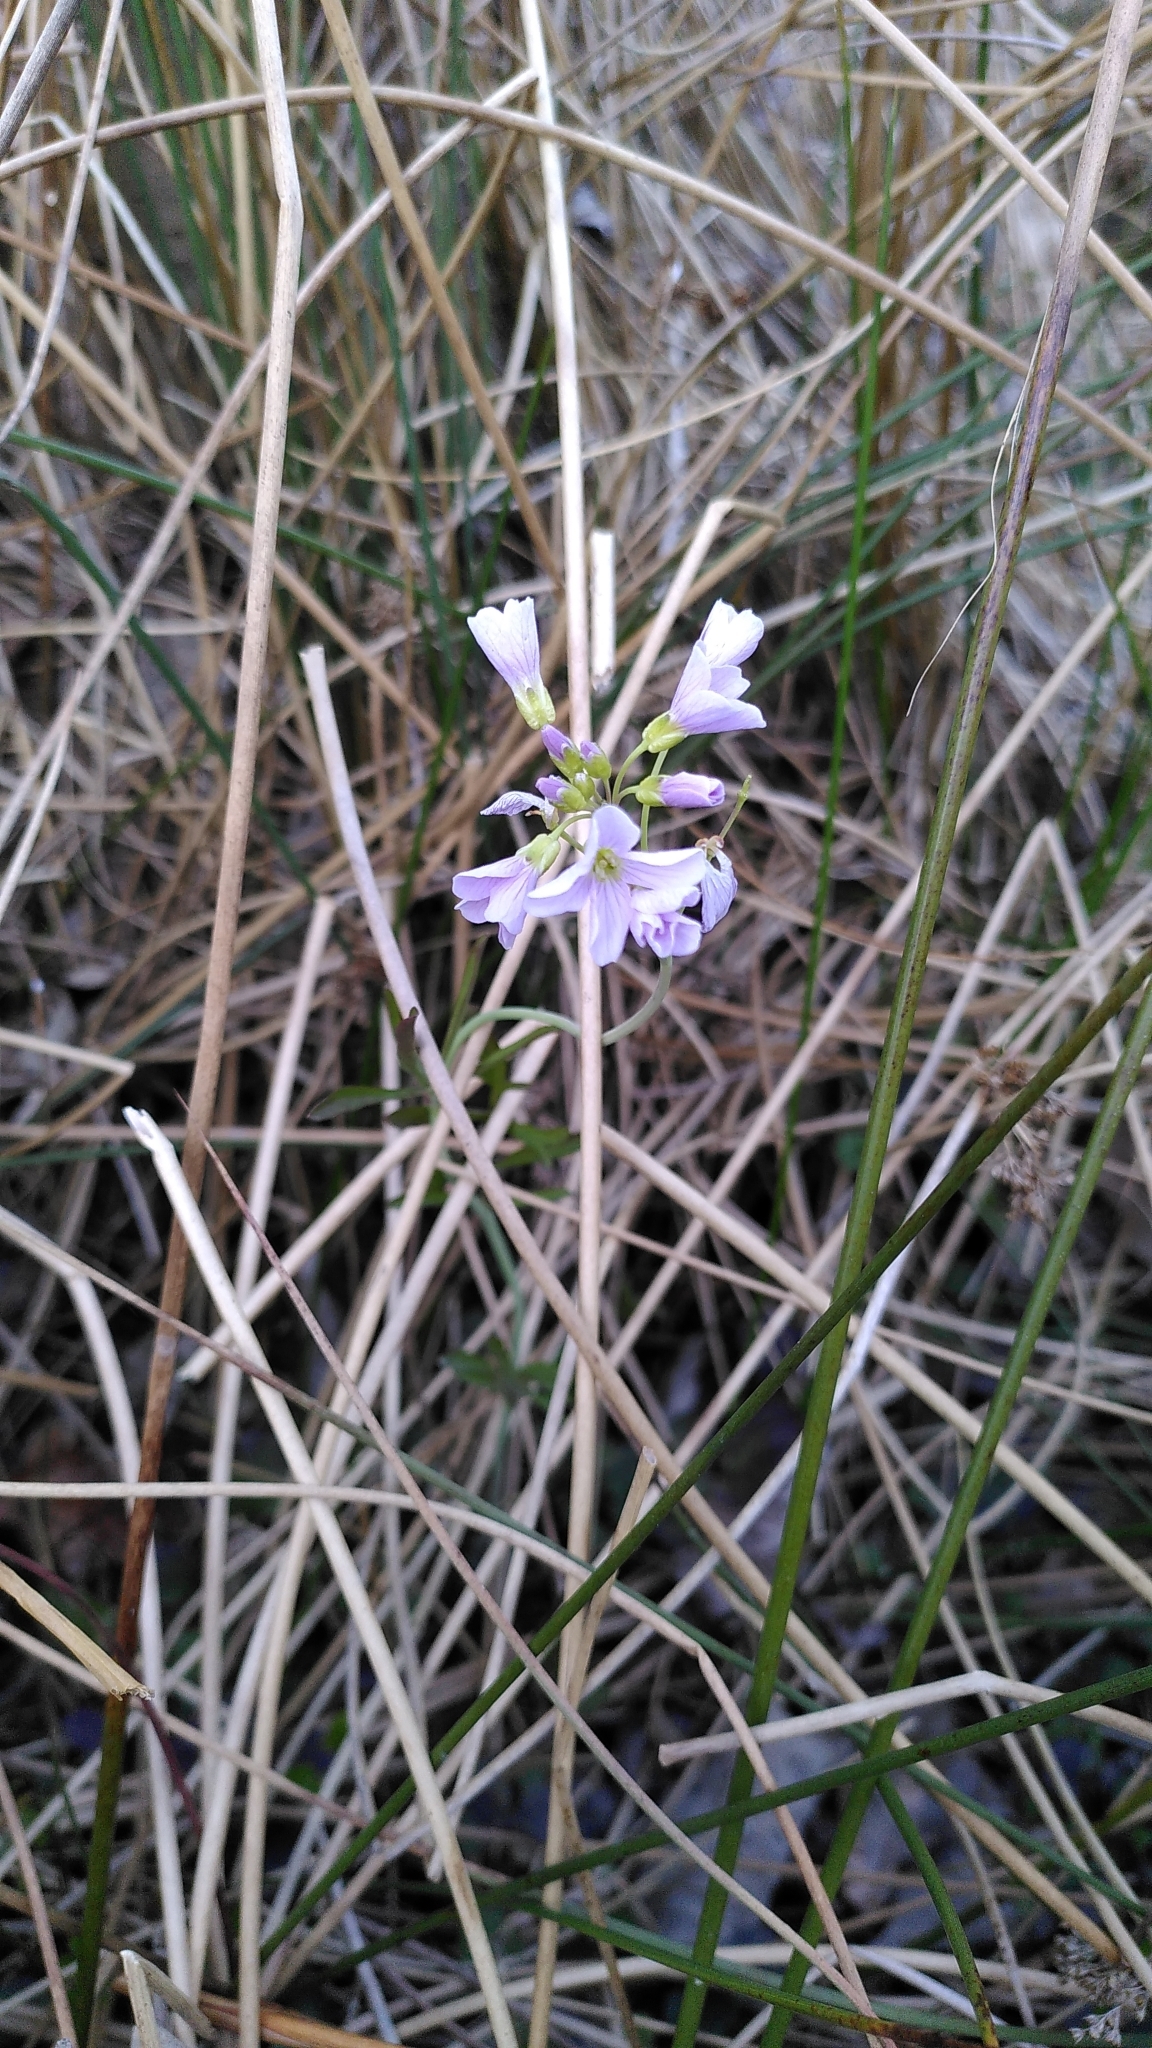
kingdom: Plantae
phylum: Tracheophyta
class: Magnoliopsida
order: Brassicales
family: Brassicaceae
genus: Cardamine
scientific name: Cardamine pratensis
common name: Cuckoo flower
